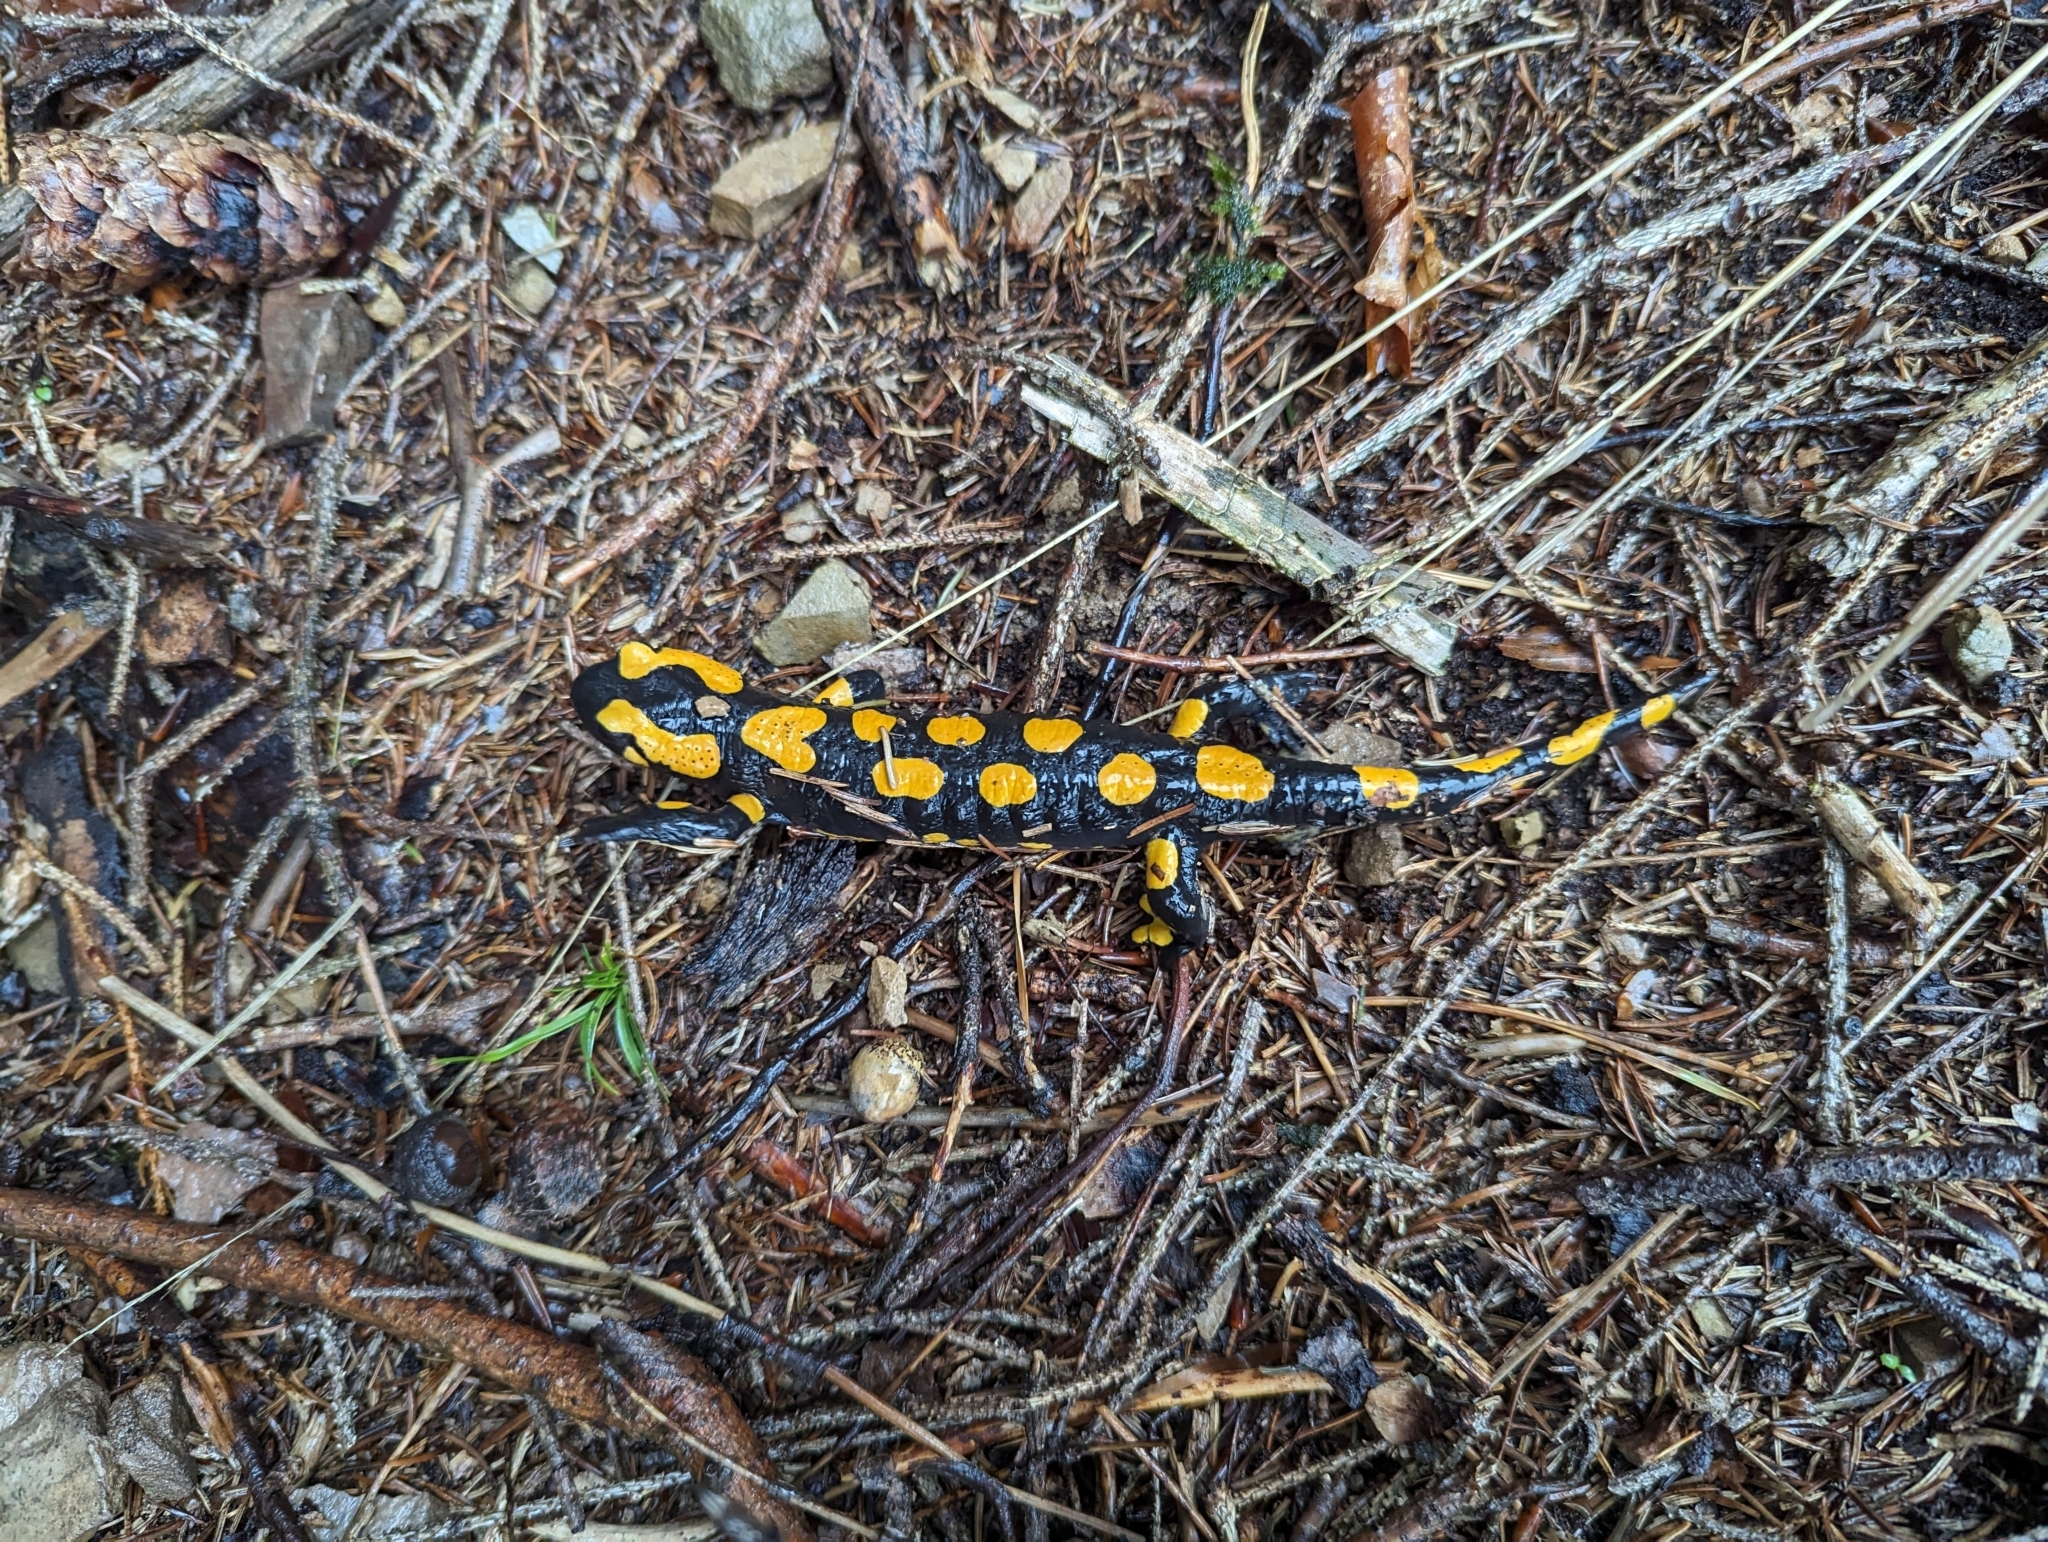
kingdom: Animalia
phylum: Chordata
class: Amphibia
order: Caudata
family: Salamandridae
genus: Salamandra
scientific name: Salamandra salamandra
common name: Fire salamander
